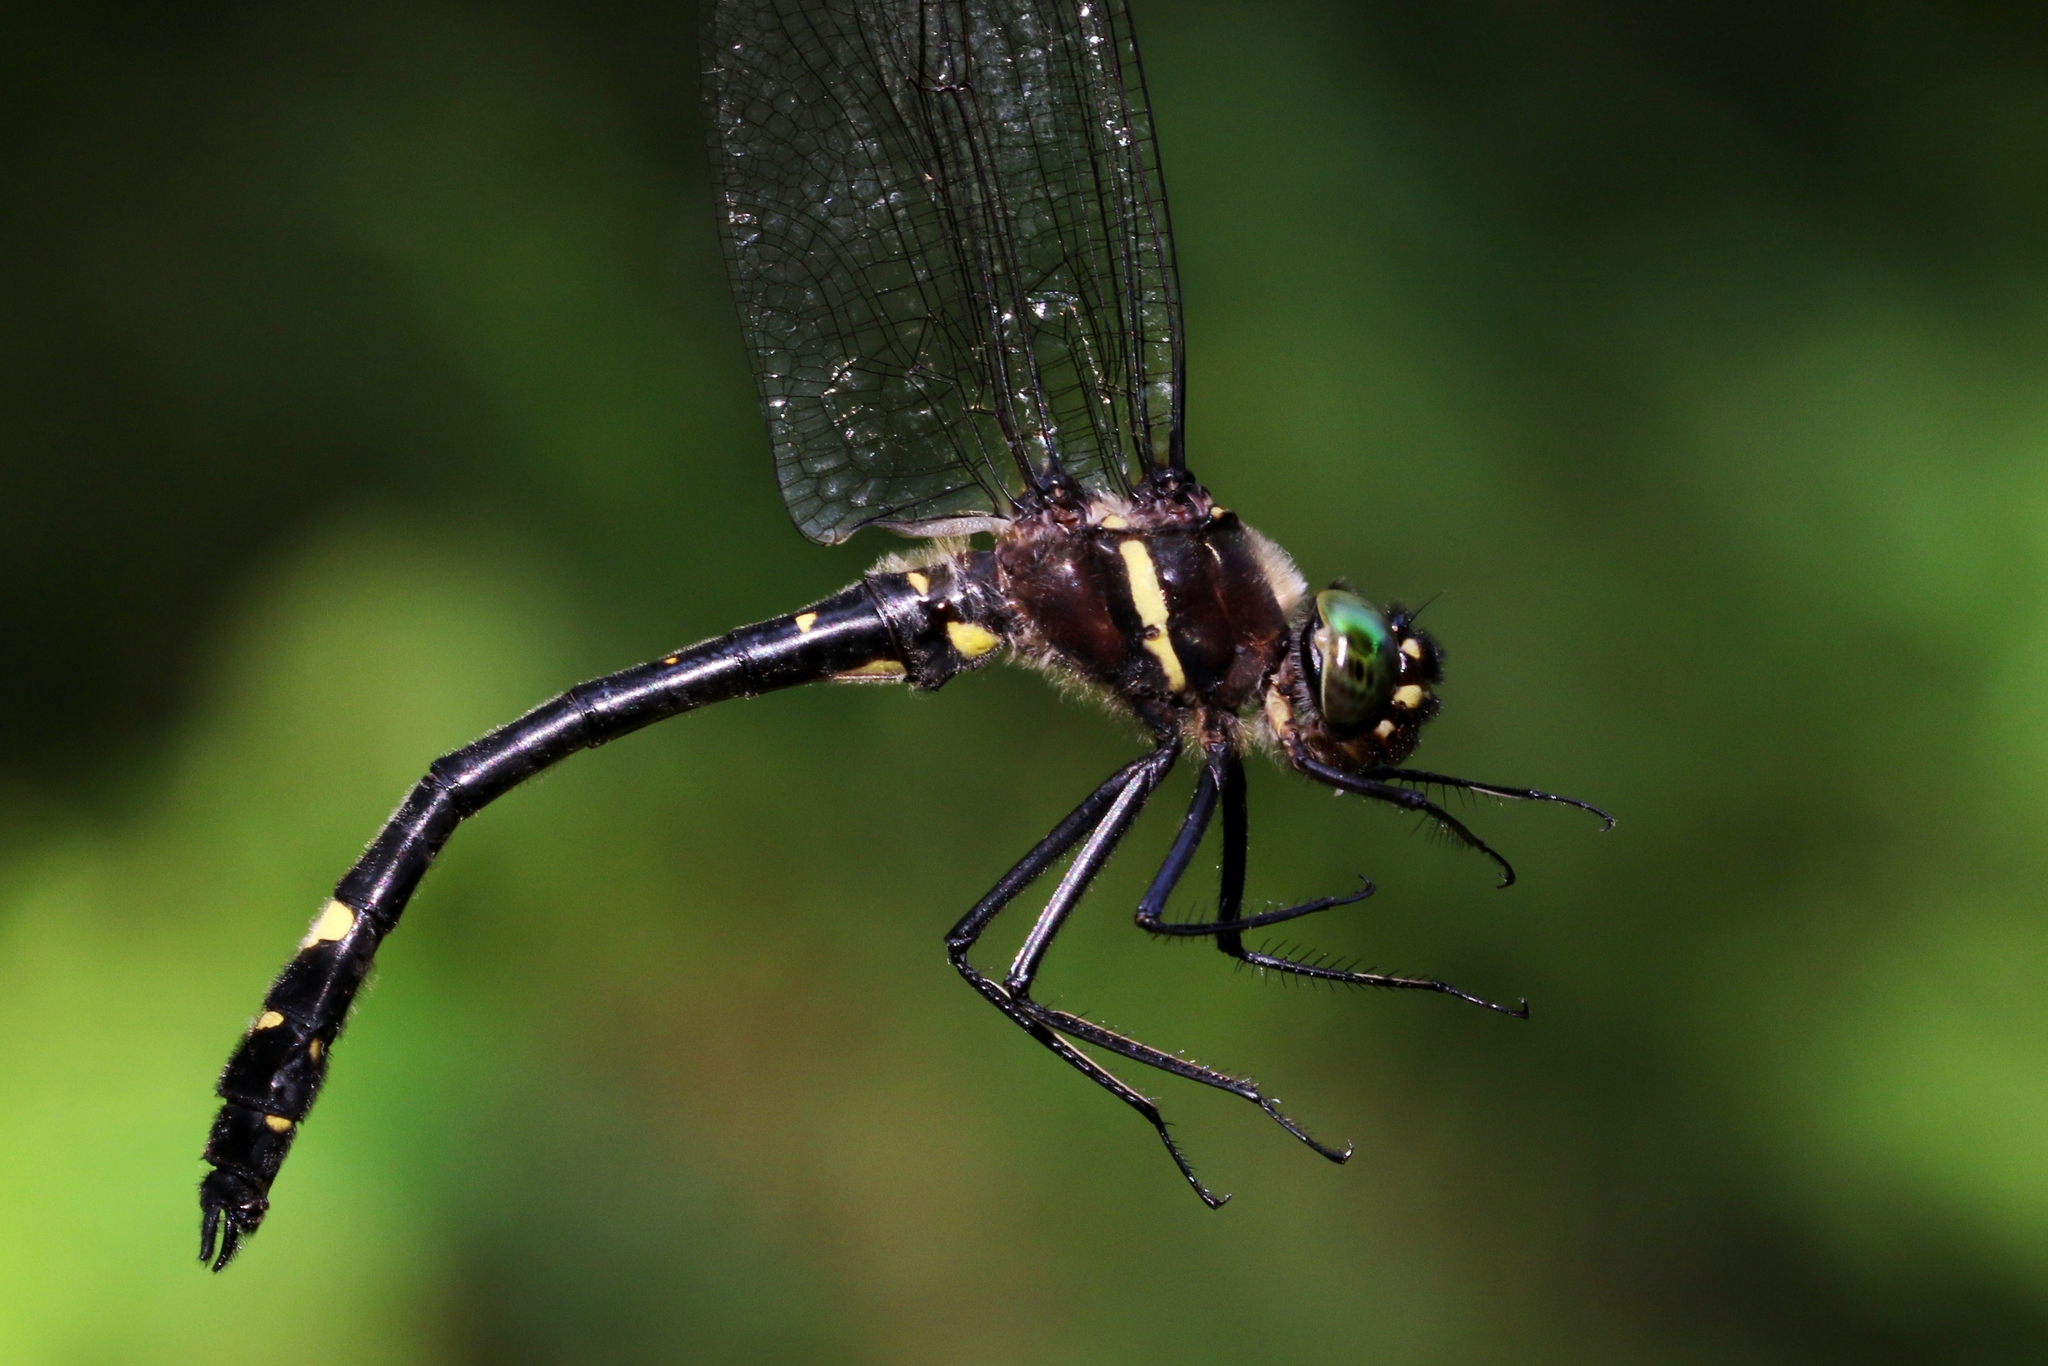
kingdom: Animalia
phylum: Arthropoda
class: Insecta
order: Odonata
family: Macromiidae
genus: Macromia
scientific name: Macromia illinoiensis
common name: Swift river cruiser
